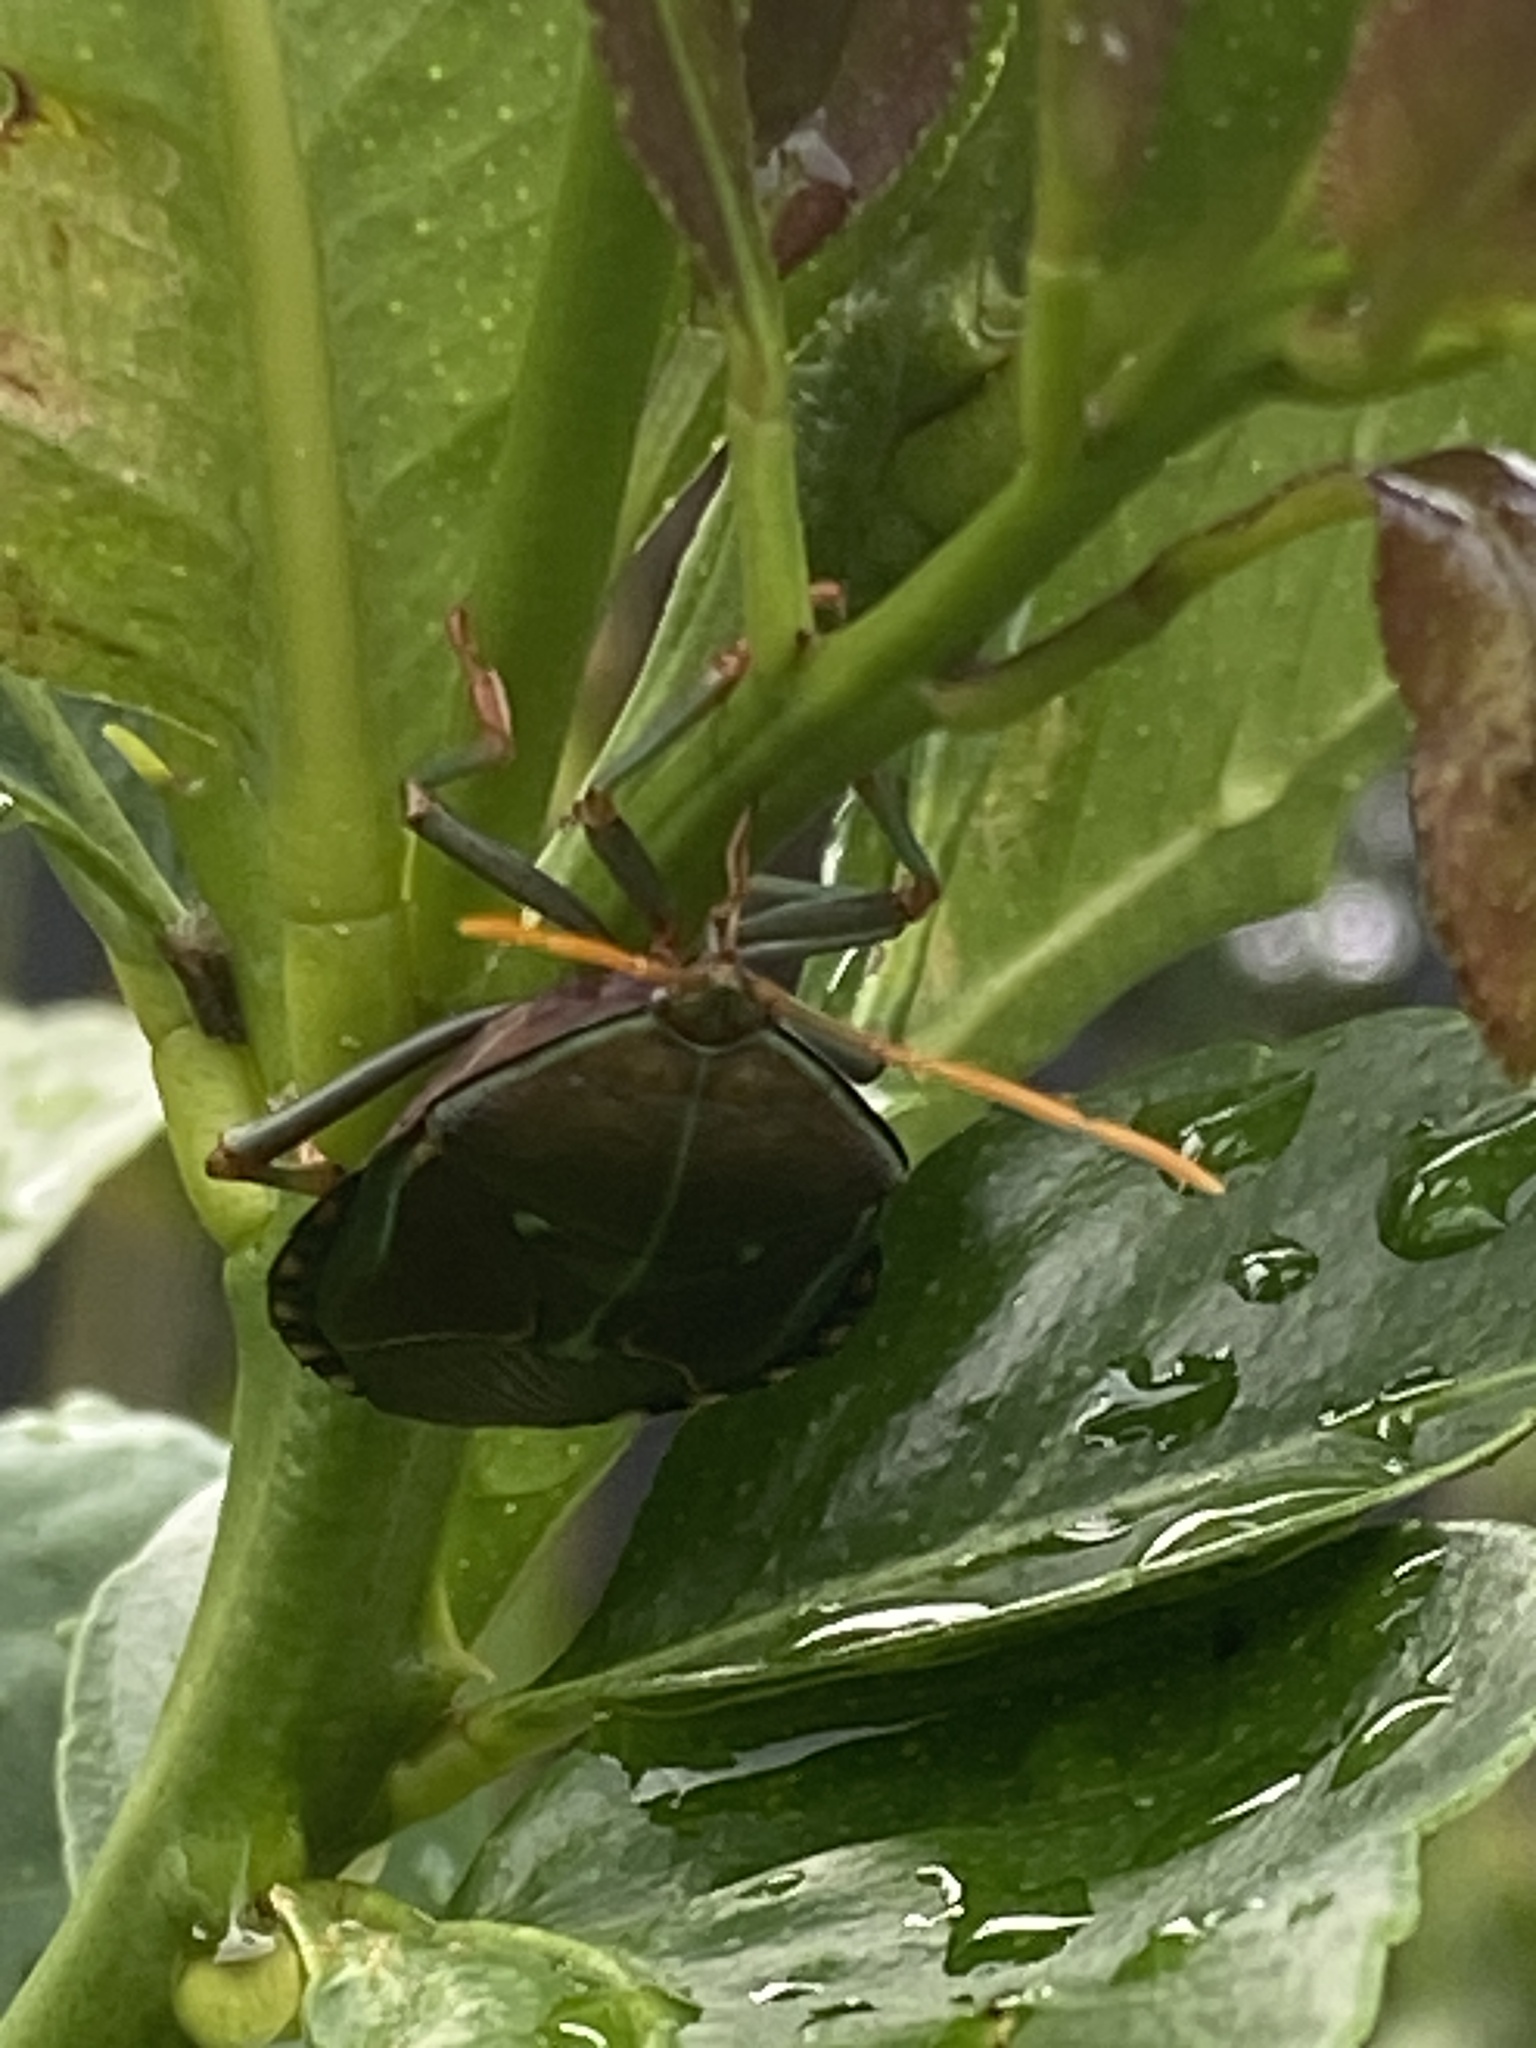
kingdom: Animalia
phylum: Arthropoda
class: Insecta
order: Hemiptera
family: Tessaratomidae
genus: Musgraveia
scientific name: Musgraveia sulciventris
